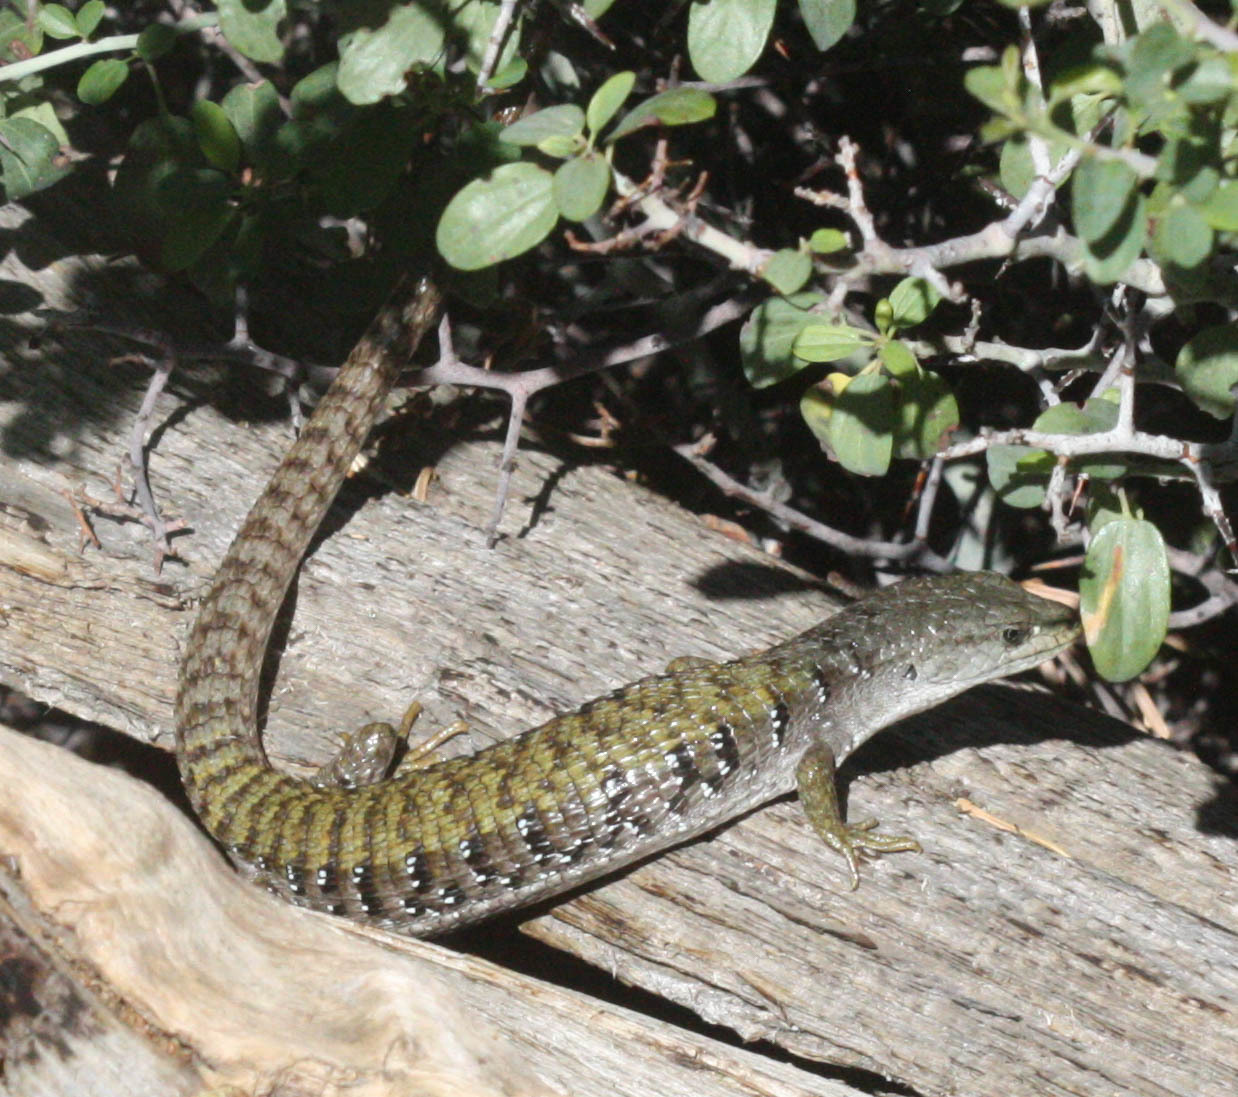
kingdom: Animalia
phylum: Chordata
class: Squamata
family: Anguidae
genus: Elgaria
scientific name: Elgaria coerulea
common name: Northern alligator lizard
